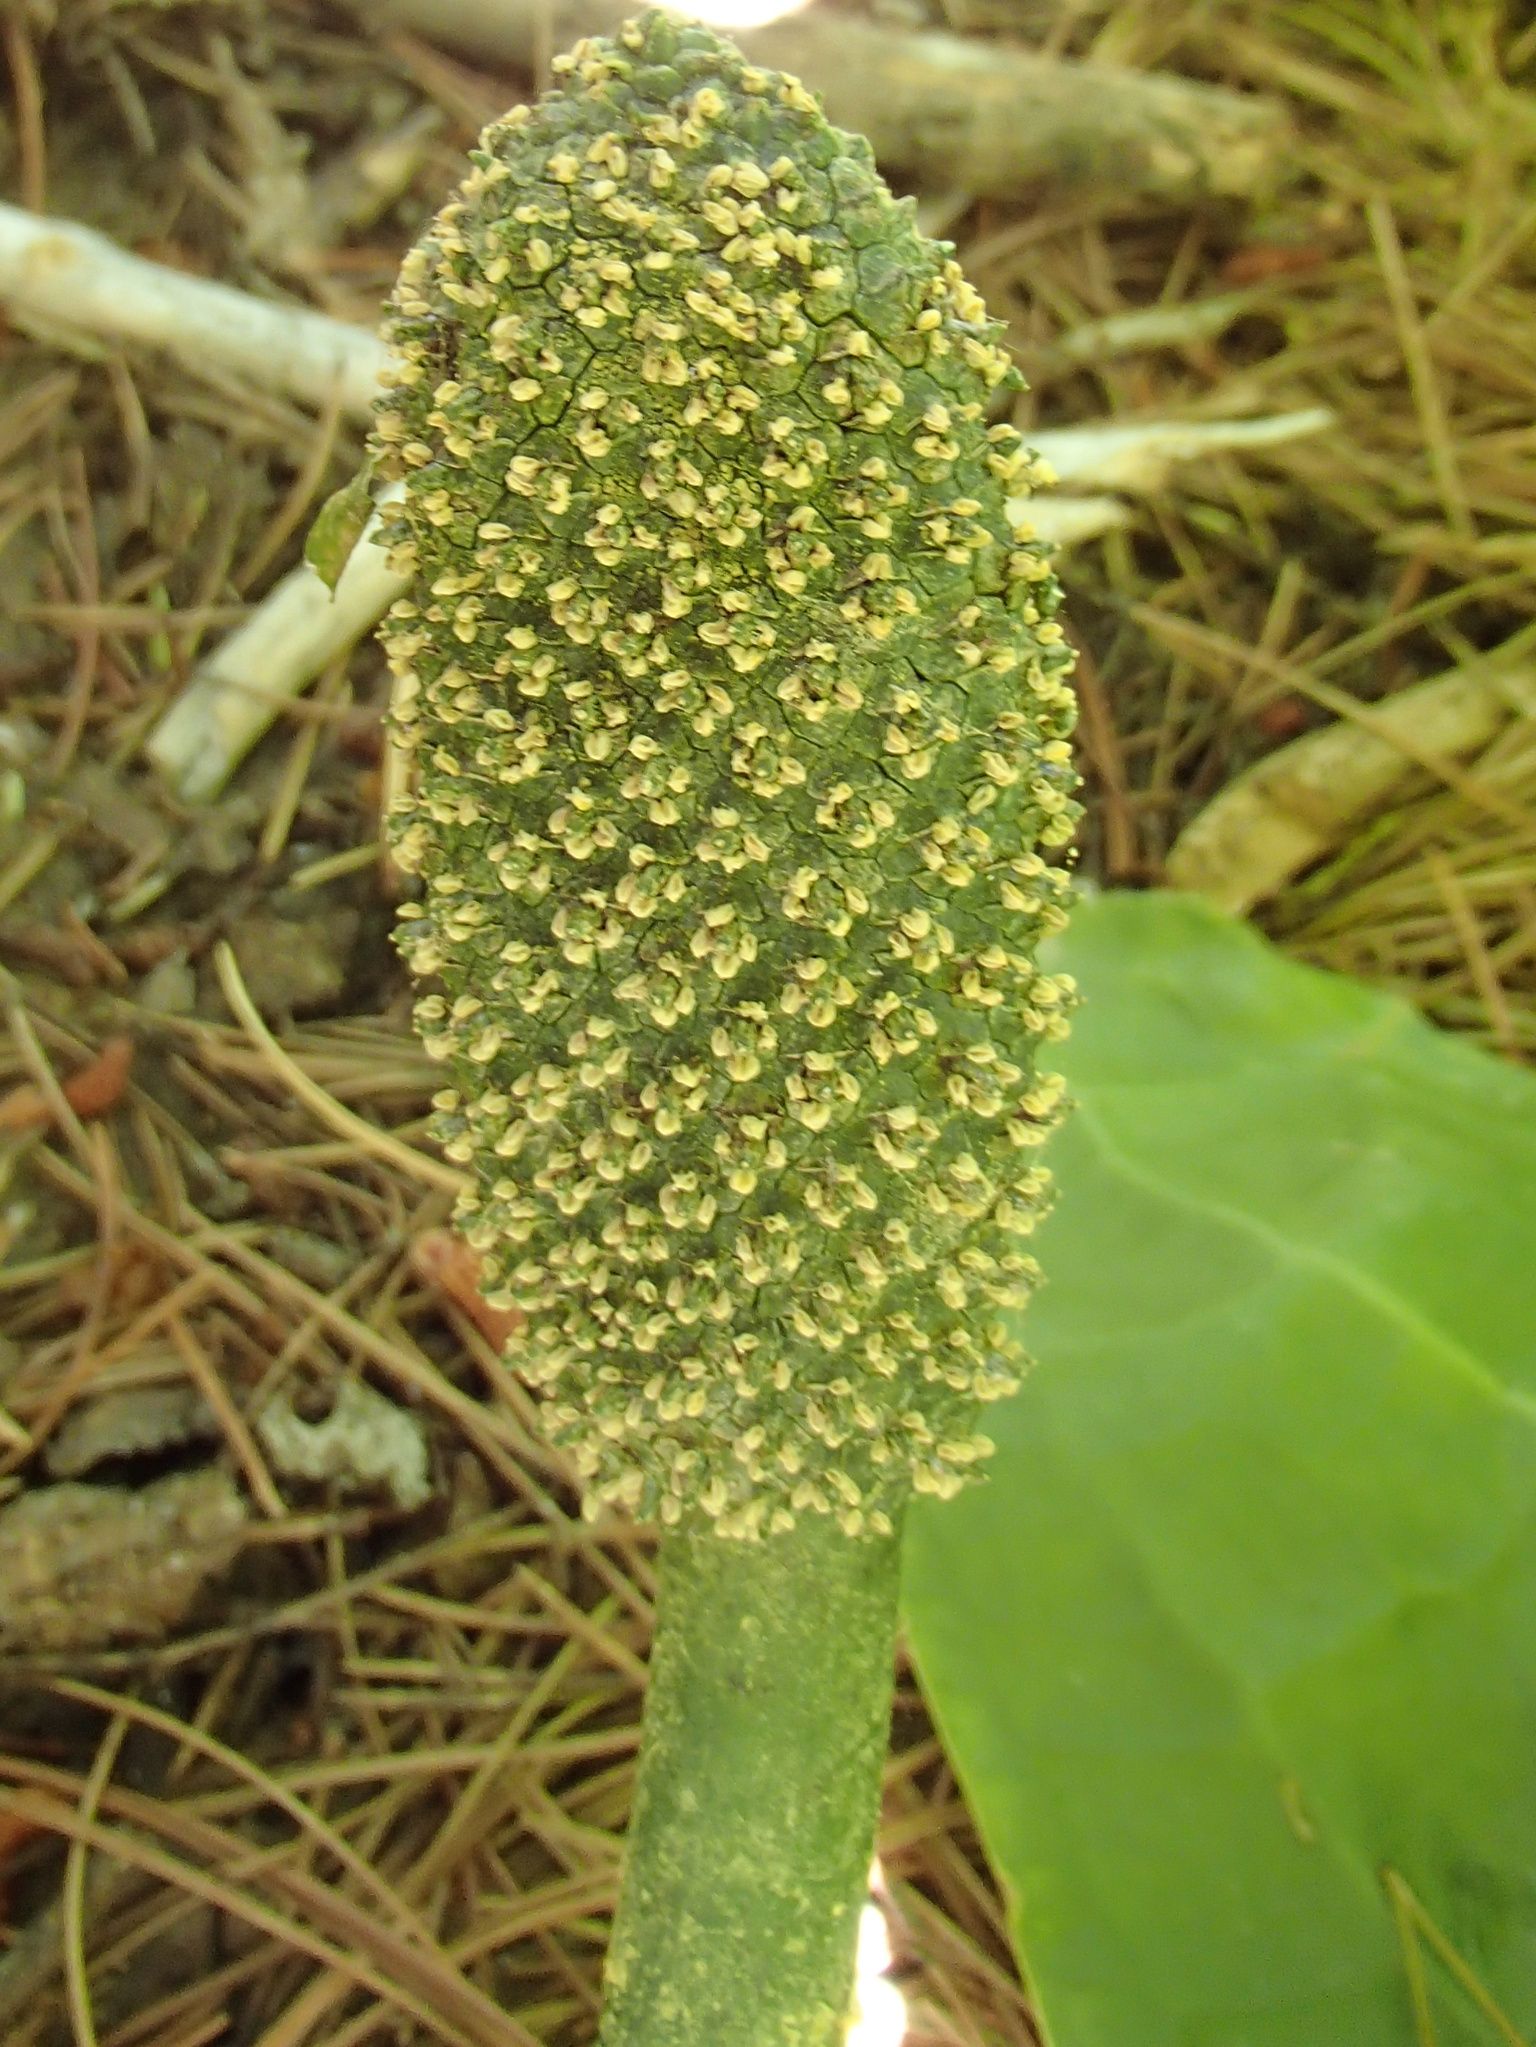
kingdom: Plantae
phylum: Tracheophyta
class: Liliopsida
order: Alismatales
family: Araceae
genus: Lysichiton
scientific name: Lysichiton americanus
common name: American skunk cabbage
